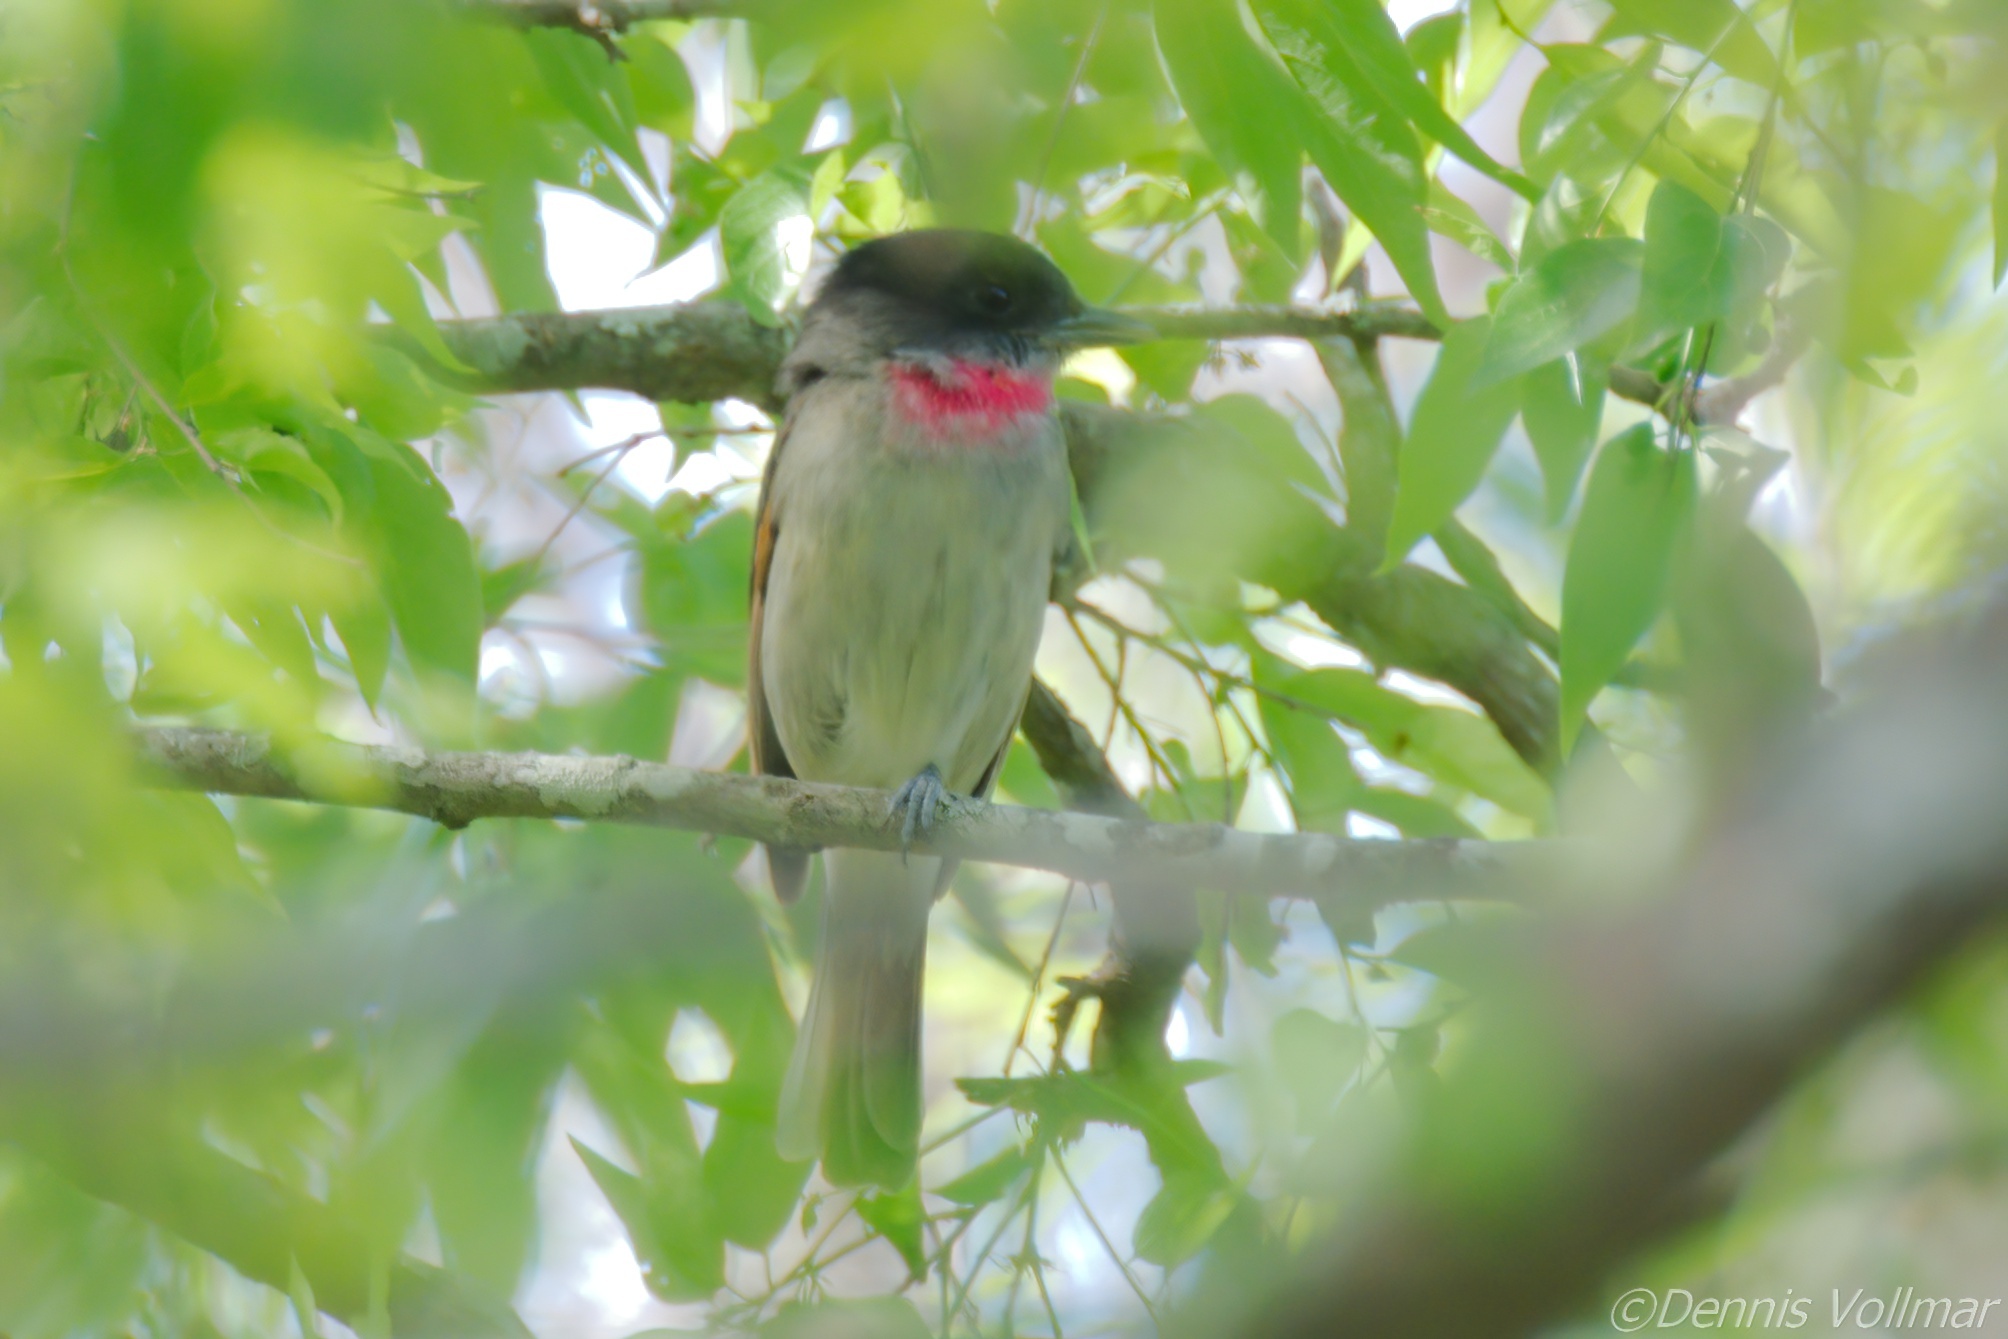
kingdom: Animalia
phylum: Chordata
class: Aves
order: Passeriformes
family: Cotingidae
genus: Pachyramphus
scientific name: Pachyramphus aglaiae
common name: Rose-throated becard
